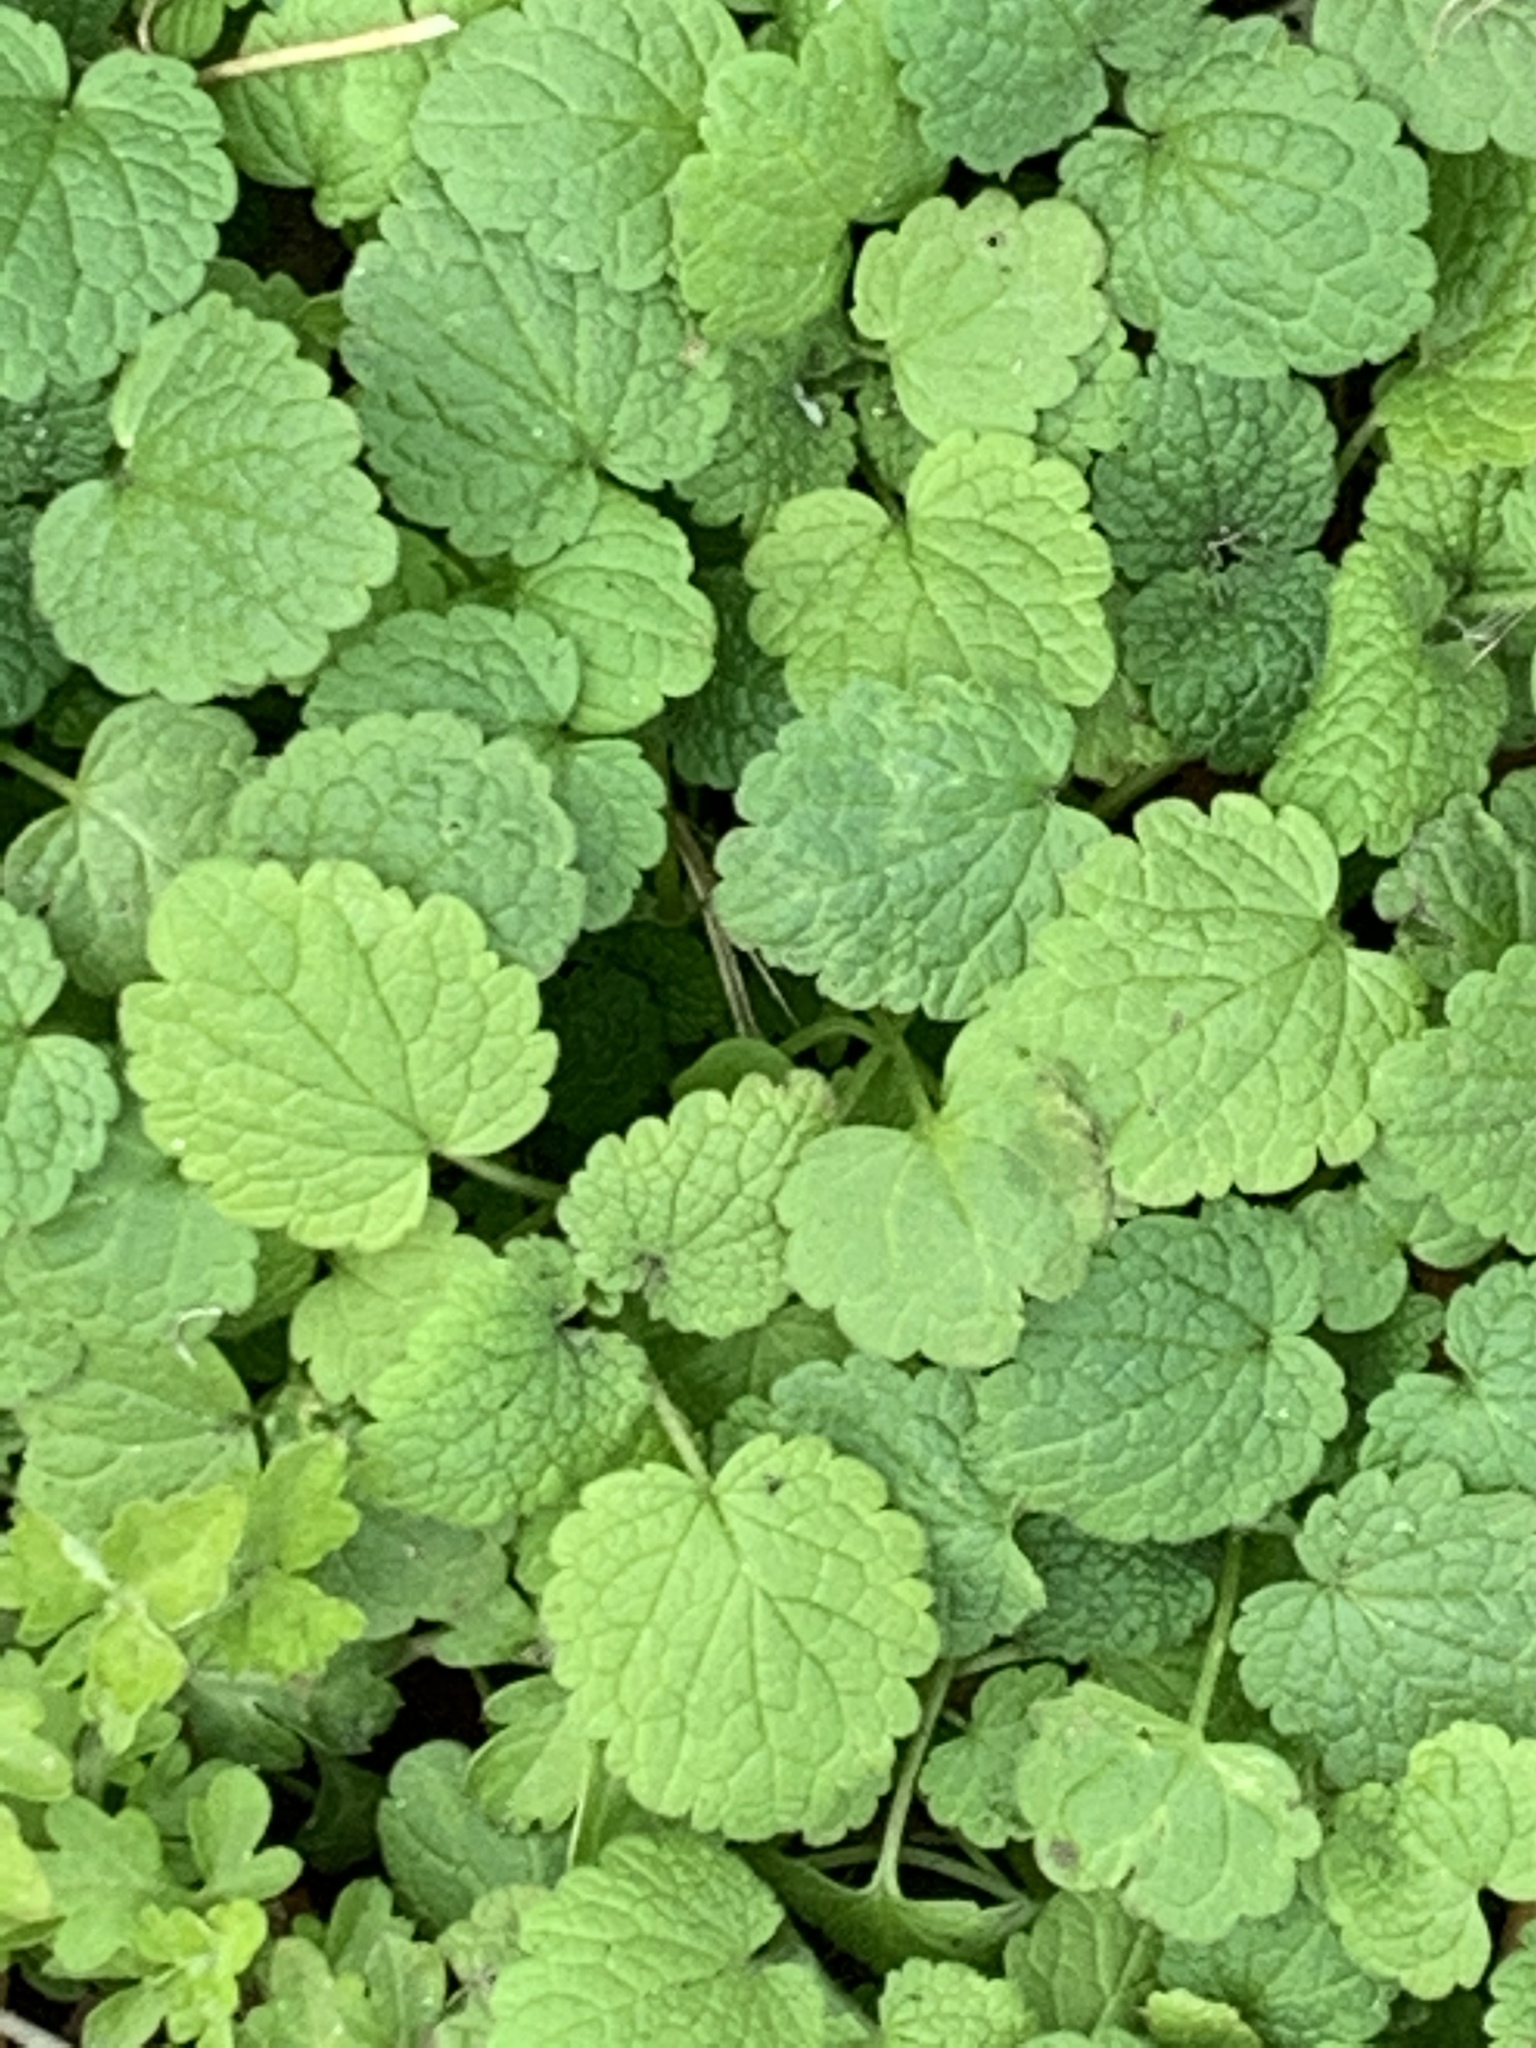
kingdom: Plantae
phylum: Tracheophyta
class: Magnoliopsida
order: Lamiales
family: Lamiaceae
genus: Lamium
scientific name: Lamium purpureum
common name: Red dead-nettle
